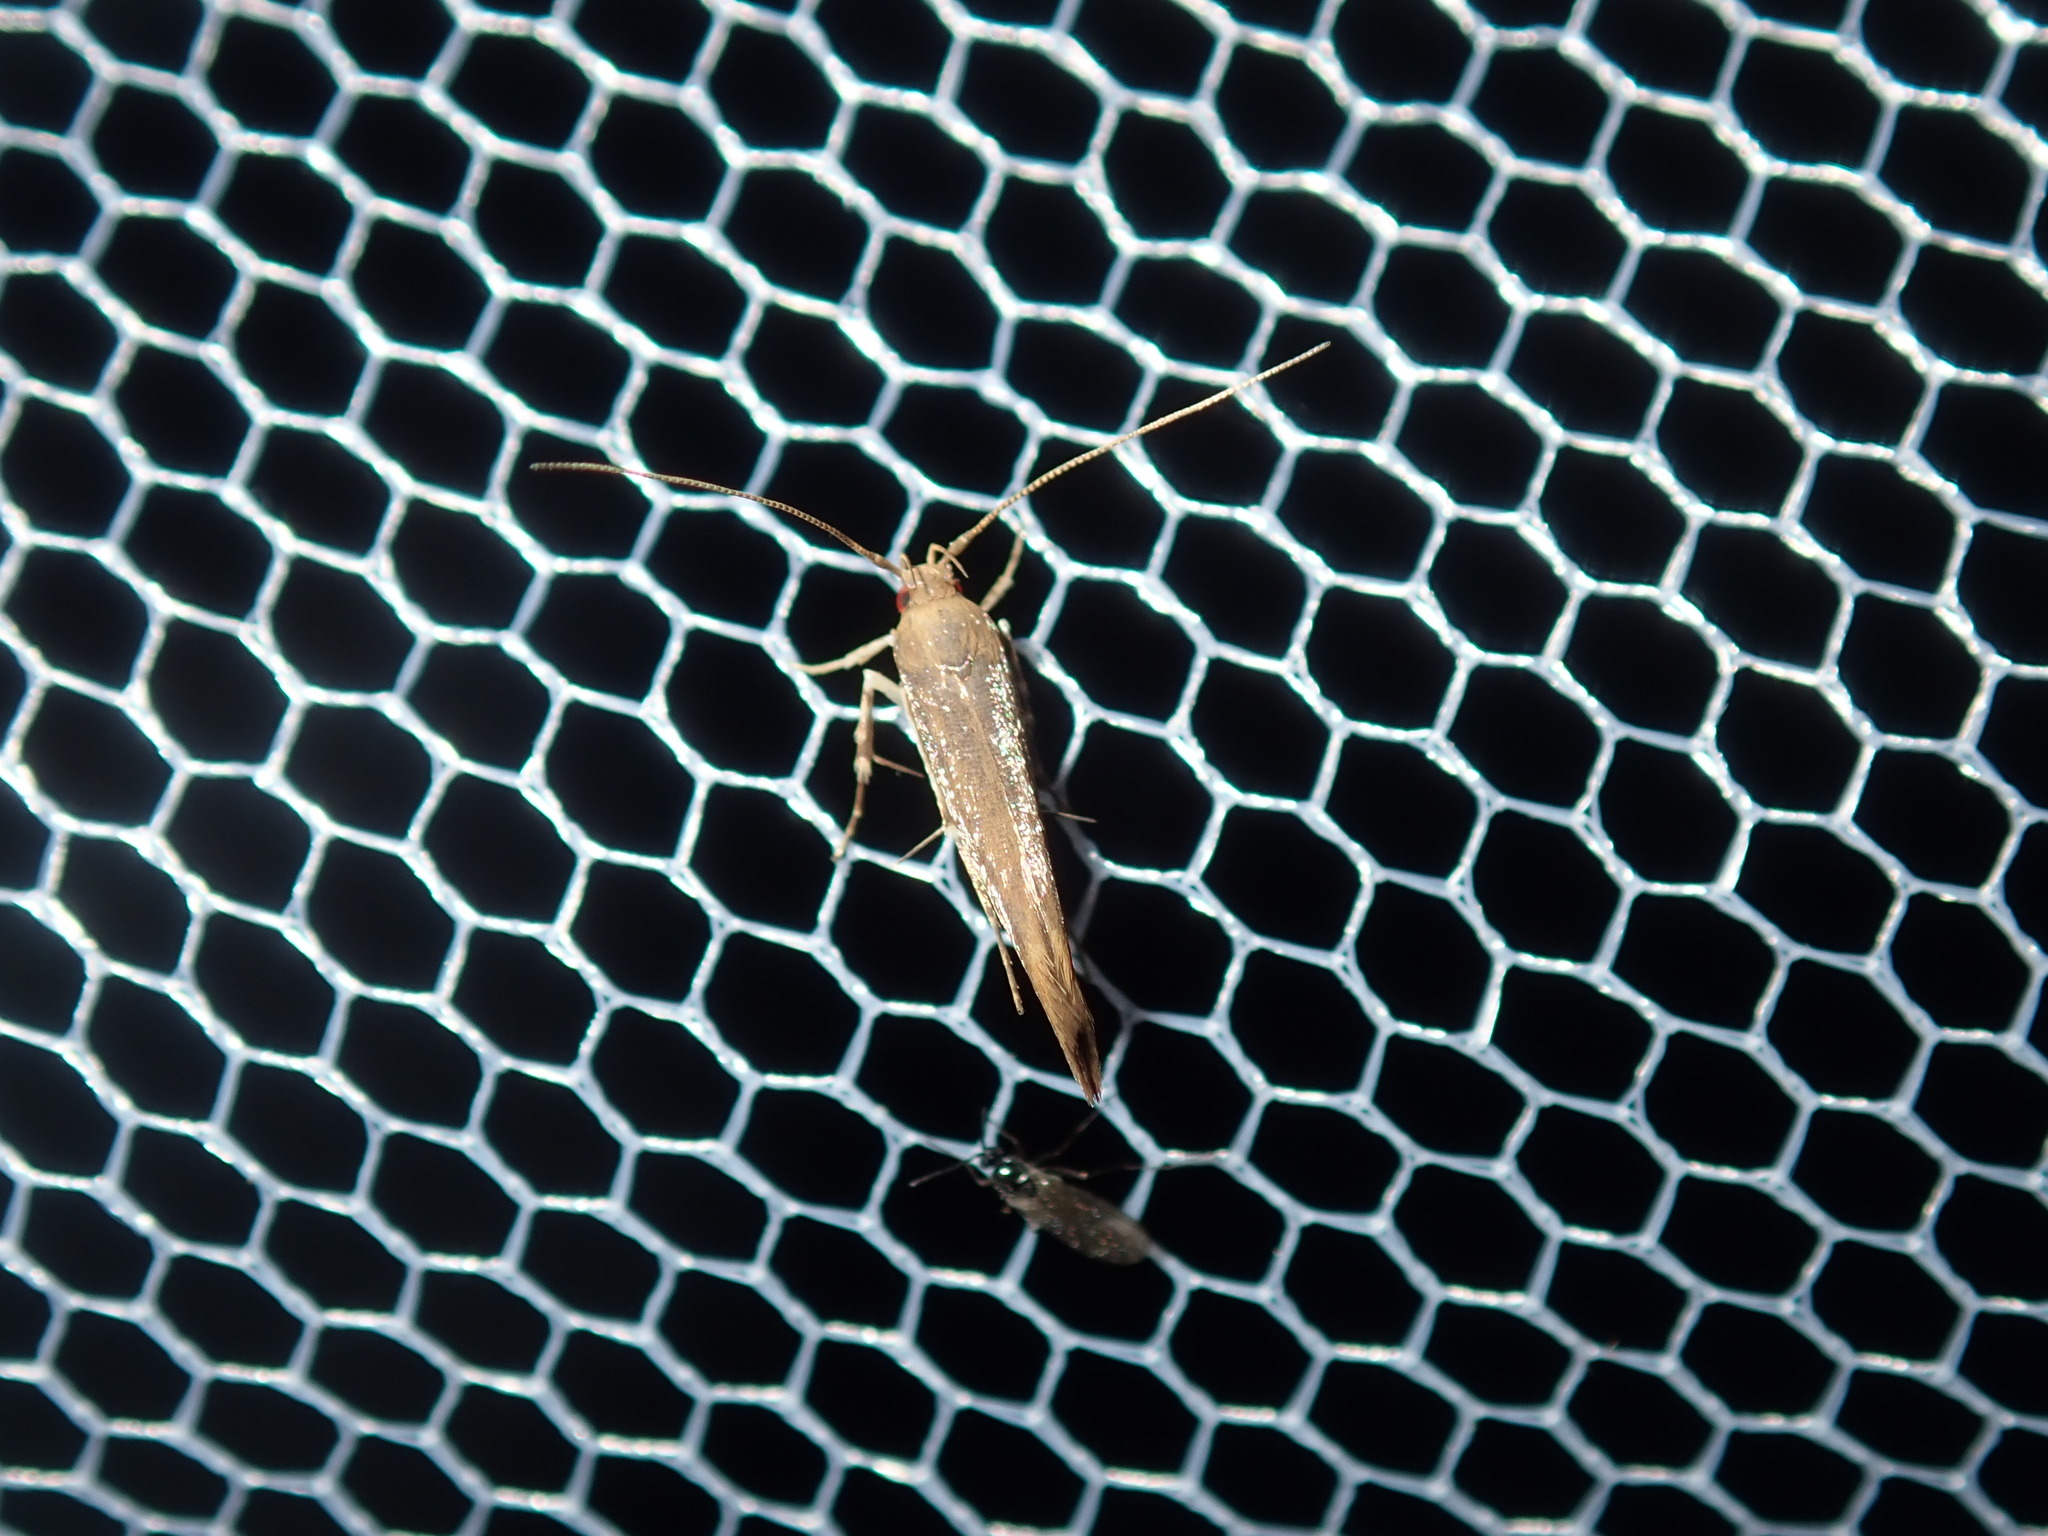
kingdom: Animalia
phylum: Arthropoda
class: Insecta
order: Lepidoptera
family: Cosmopterigidae
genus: Glaphyristis
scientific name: Glaphyristis marmarea
